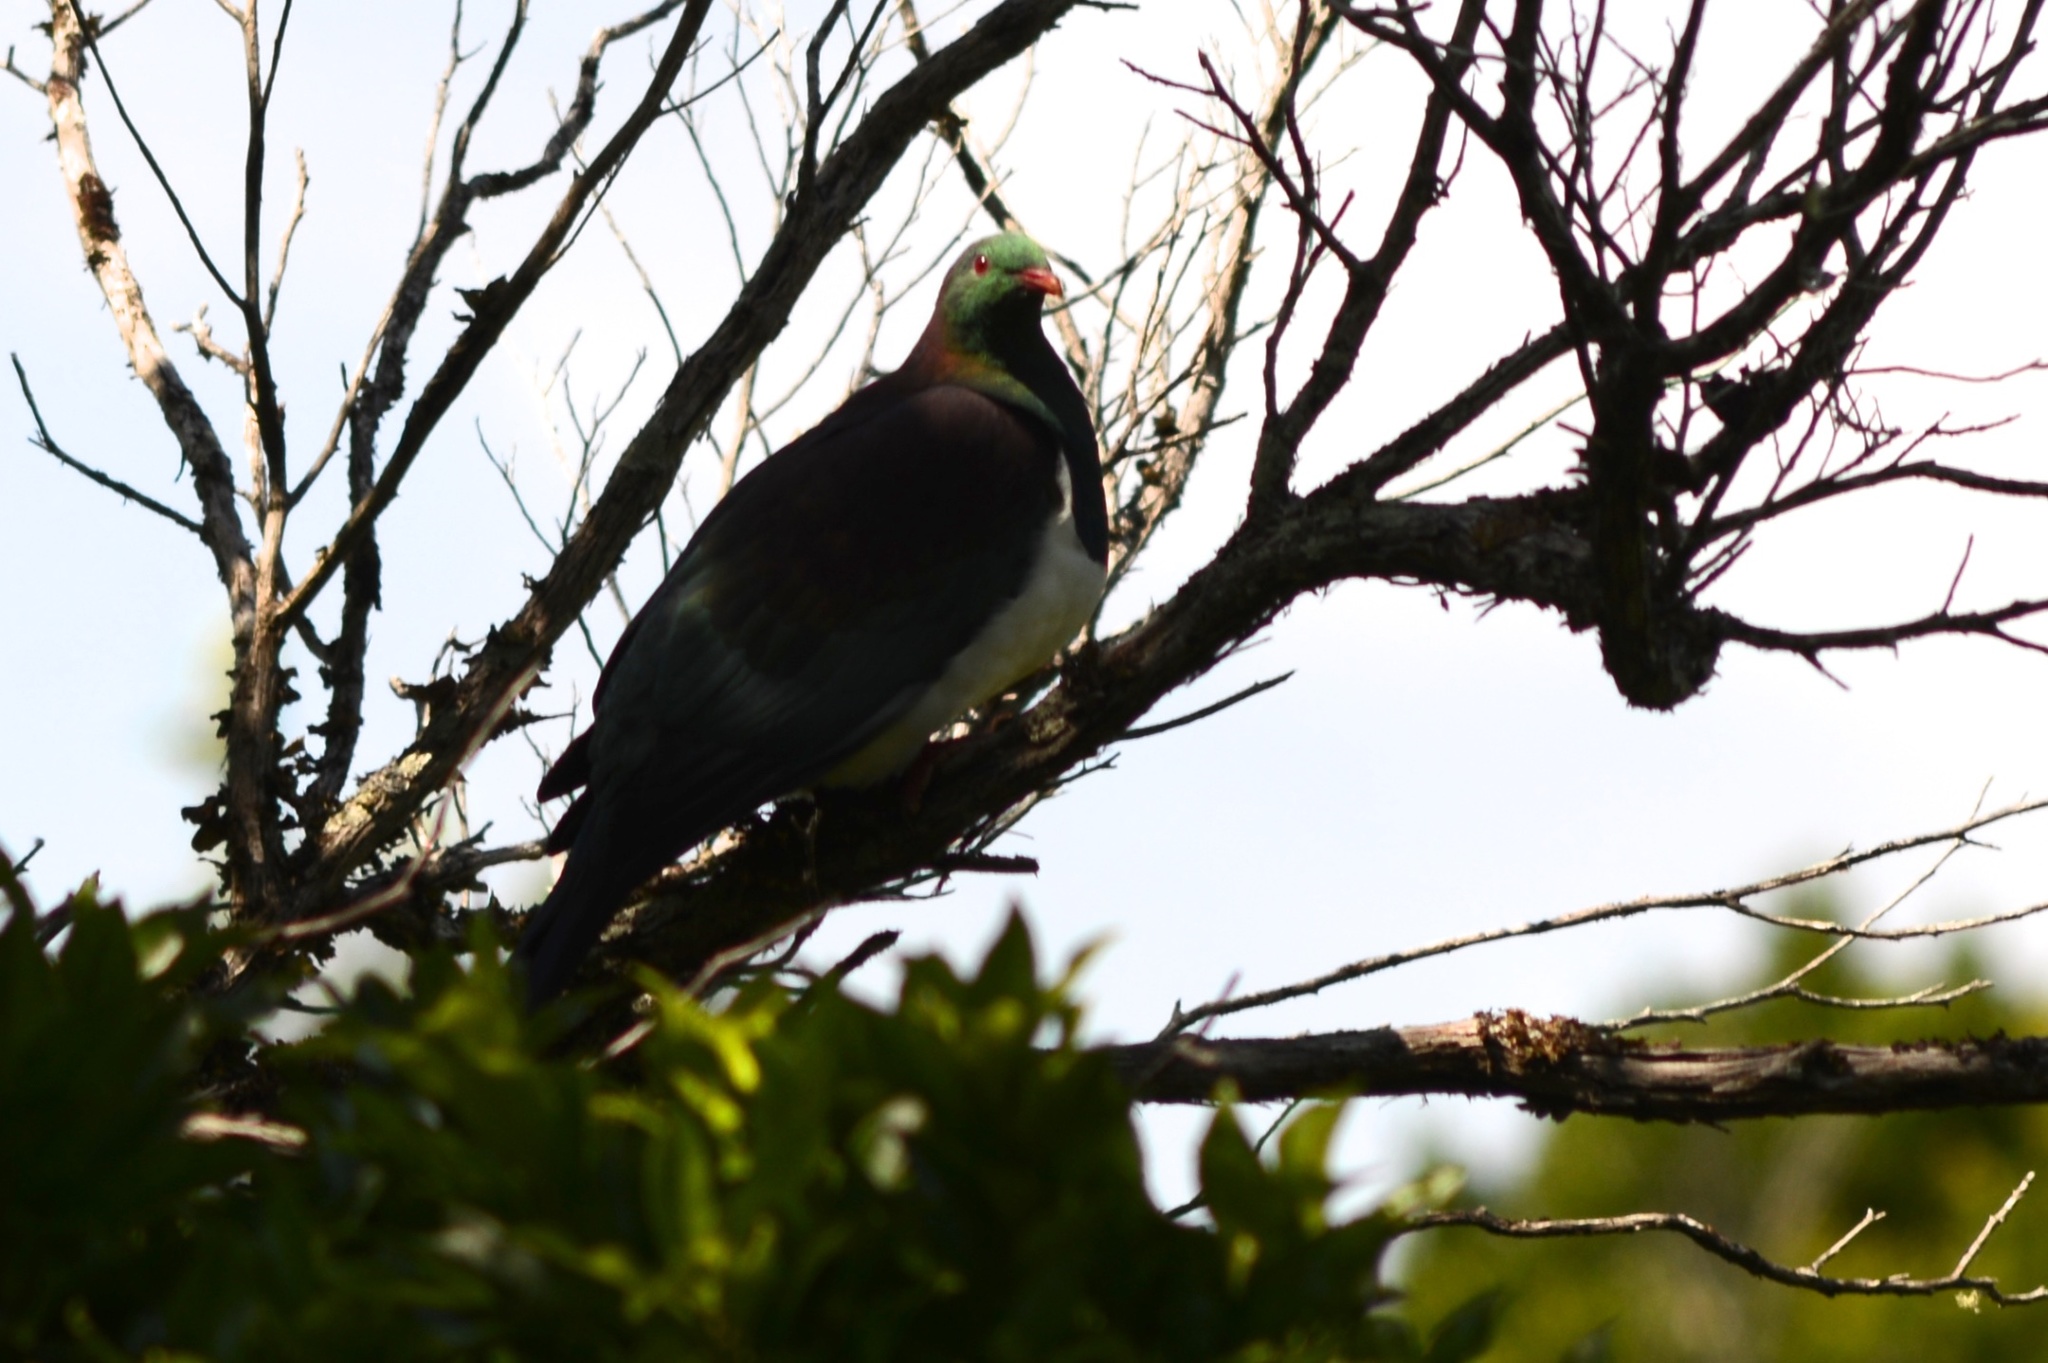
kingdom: Animalia
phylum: Chordata
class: Aves
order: Columbiformes
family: Columbidae
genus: Hemiphaga
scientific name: Hemiphaga novaeseelandiae
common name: New zealand pigeon
